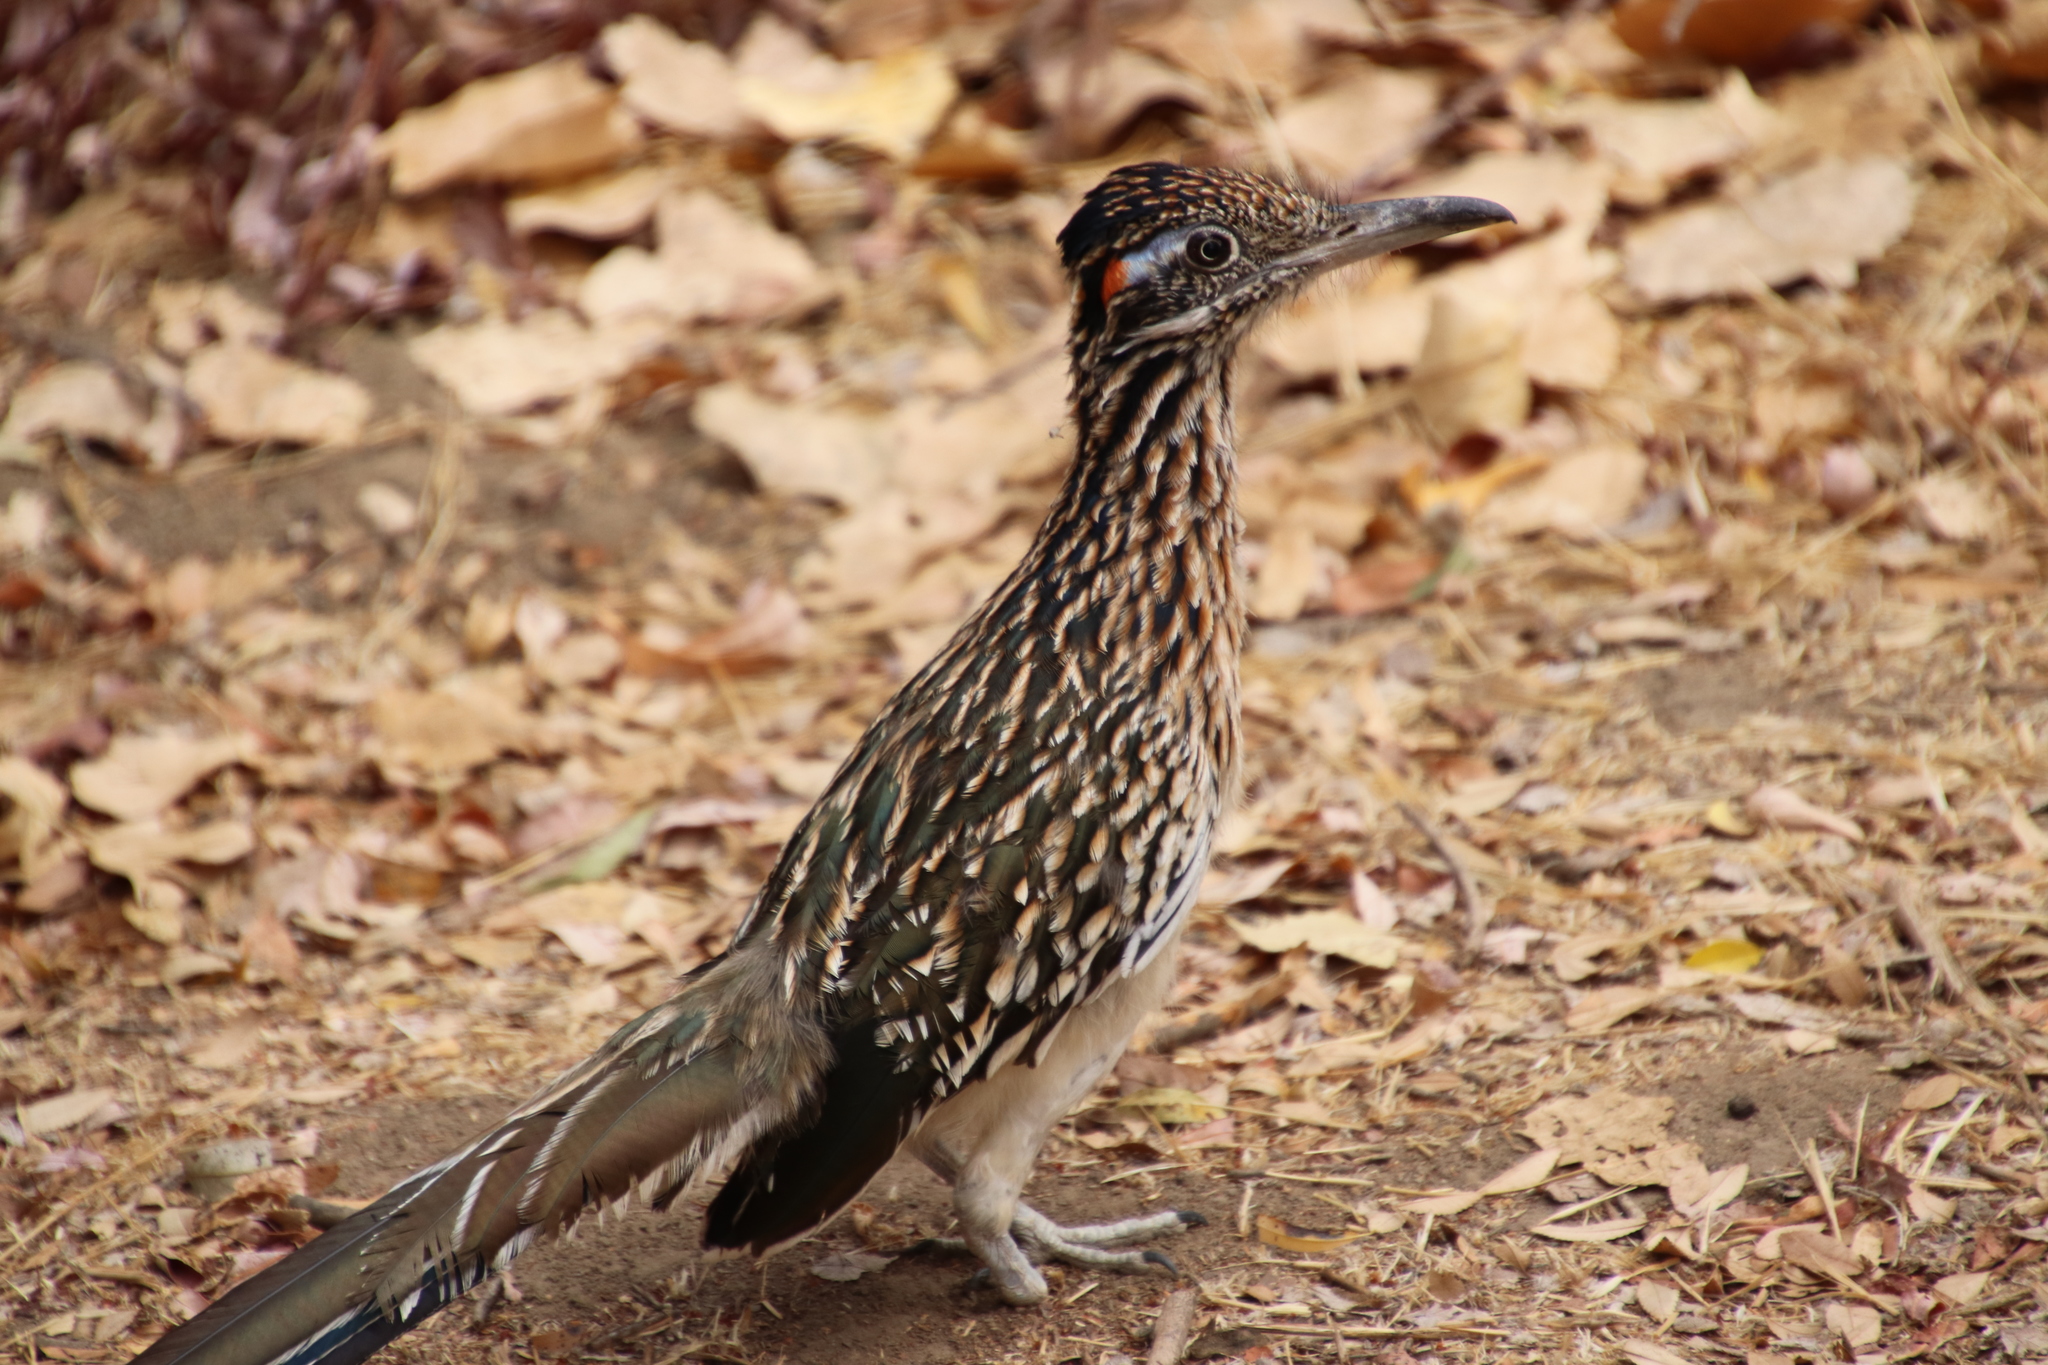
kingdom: Animalia
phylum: Chordata
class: Aves
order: Cuculiformes
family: Cuculidae
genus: Geococcyx
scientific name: Geococcyx californianus
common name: Greater roadrunner
